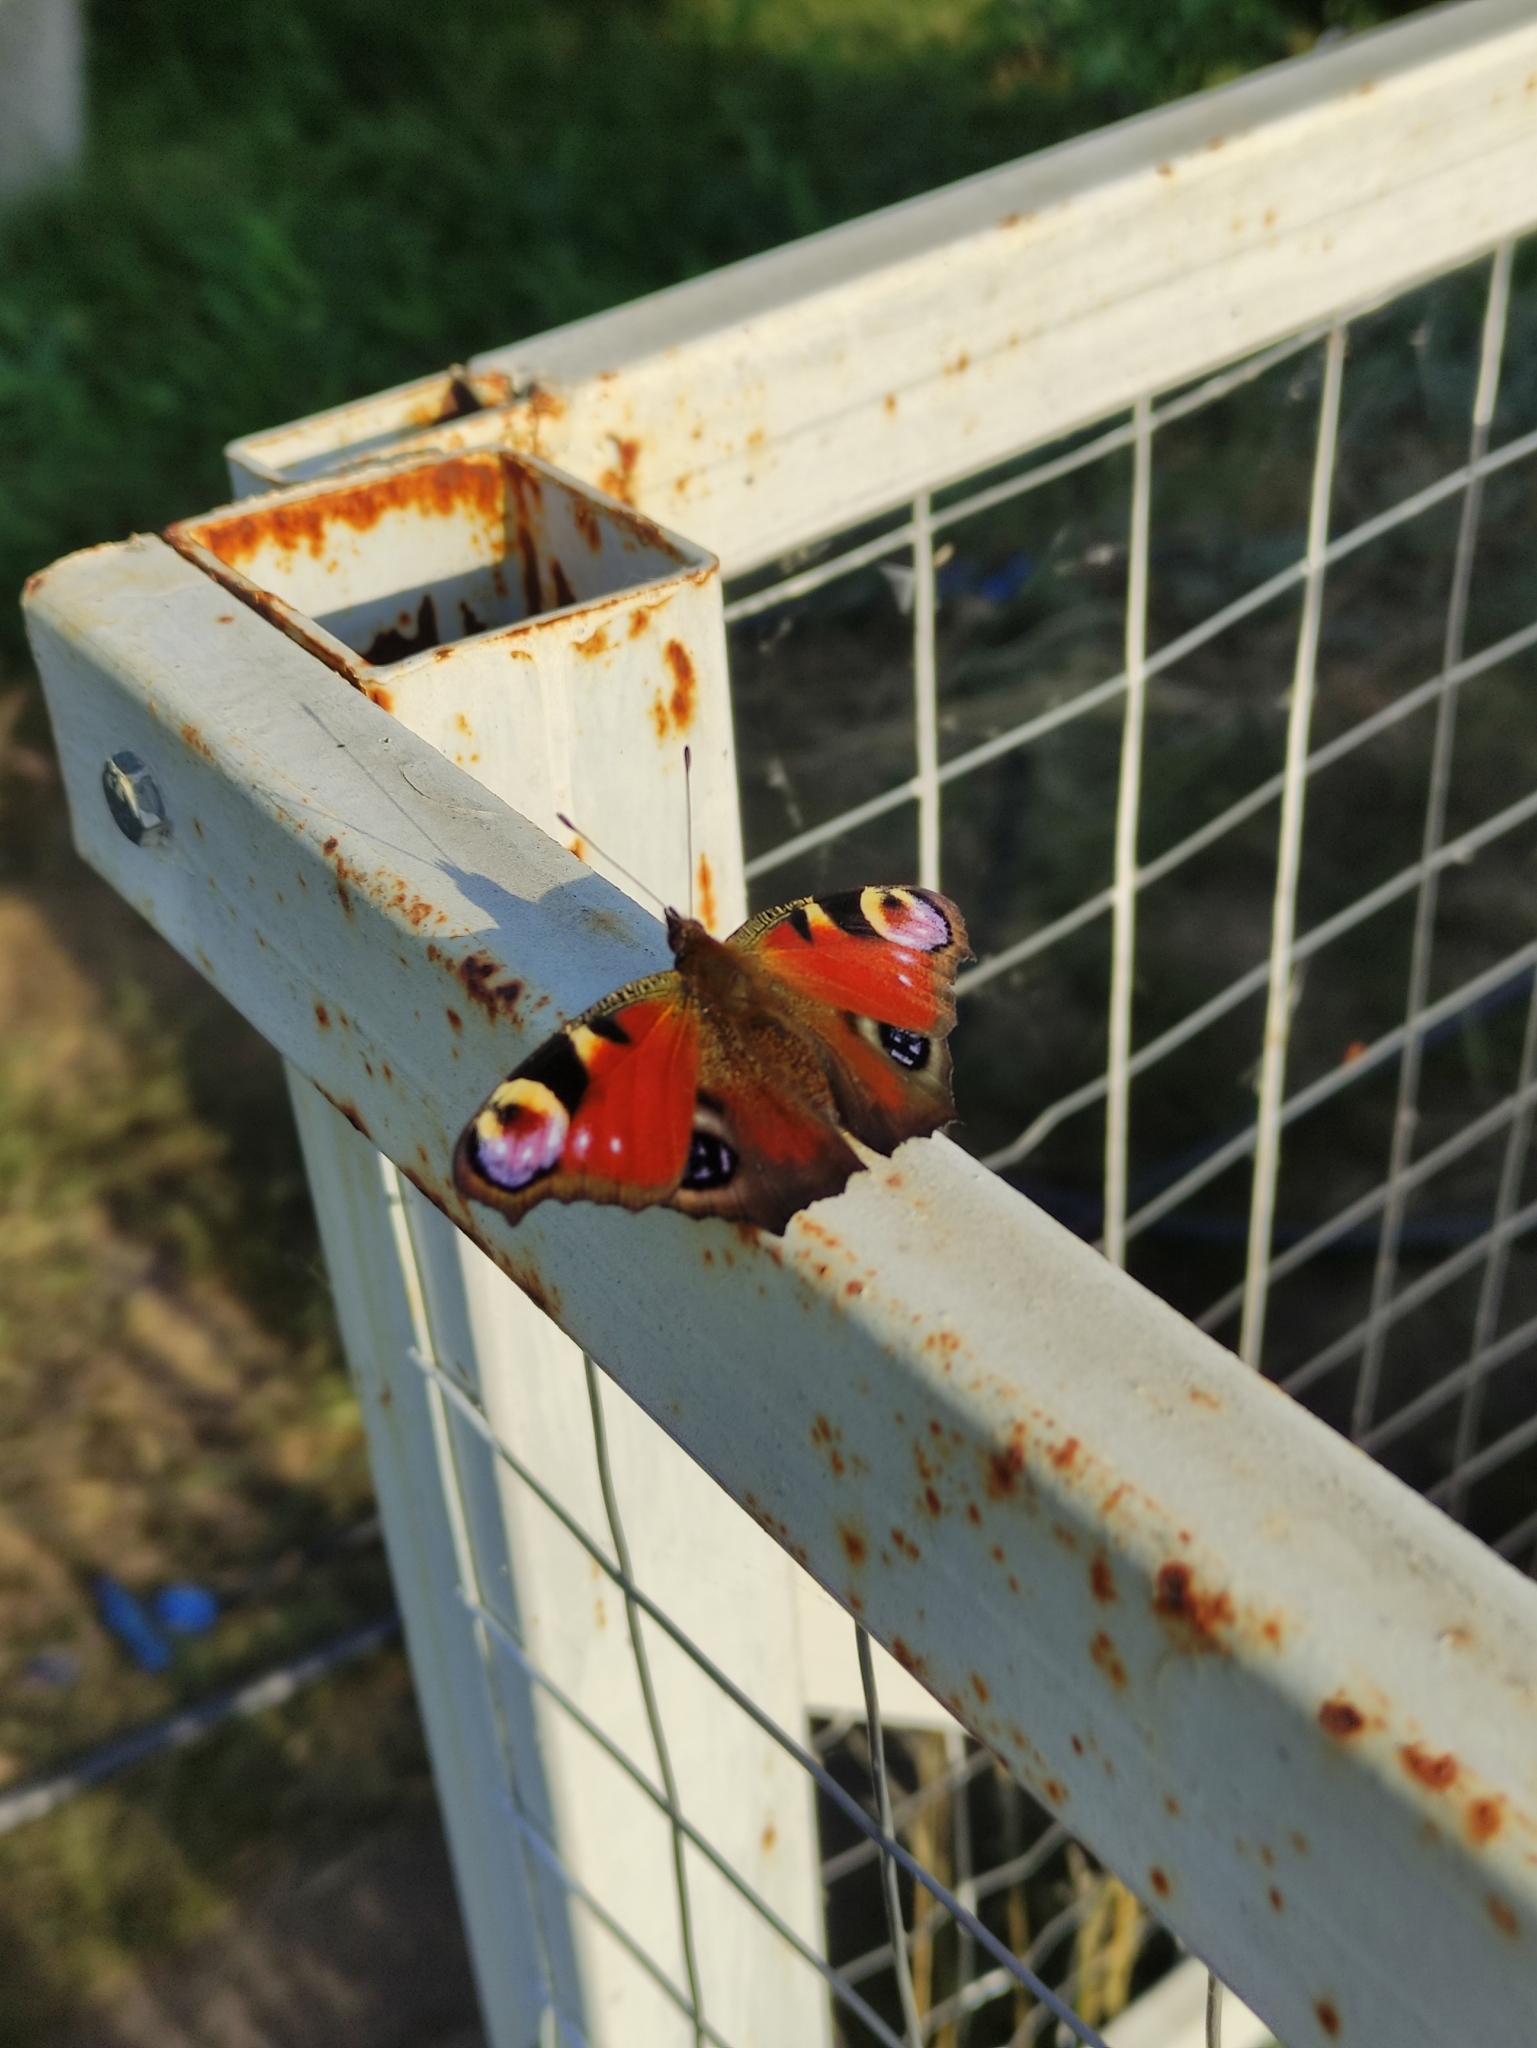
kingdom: Animalia
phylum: Arthropoda
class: Insecta
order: Lepidoptera
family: Nymphalidae
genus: Aglais
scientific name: Aglais io
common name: Peacock
